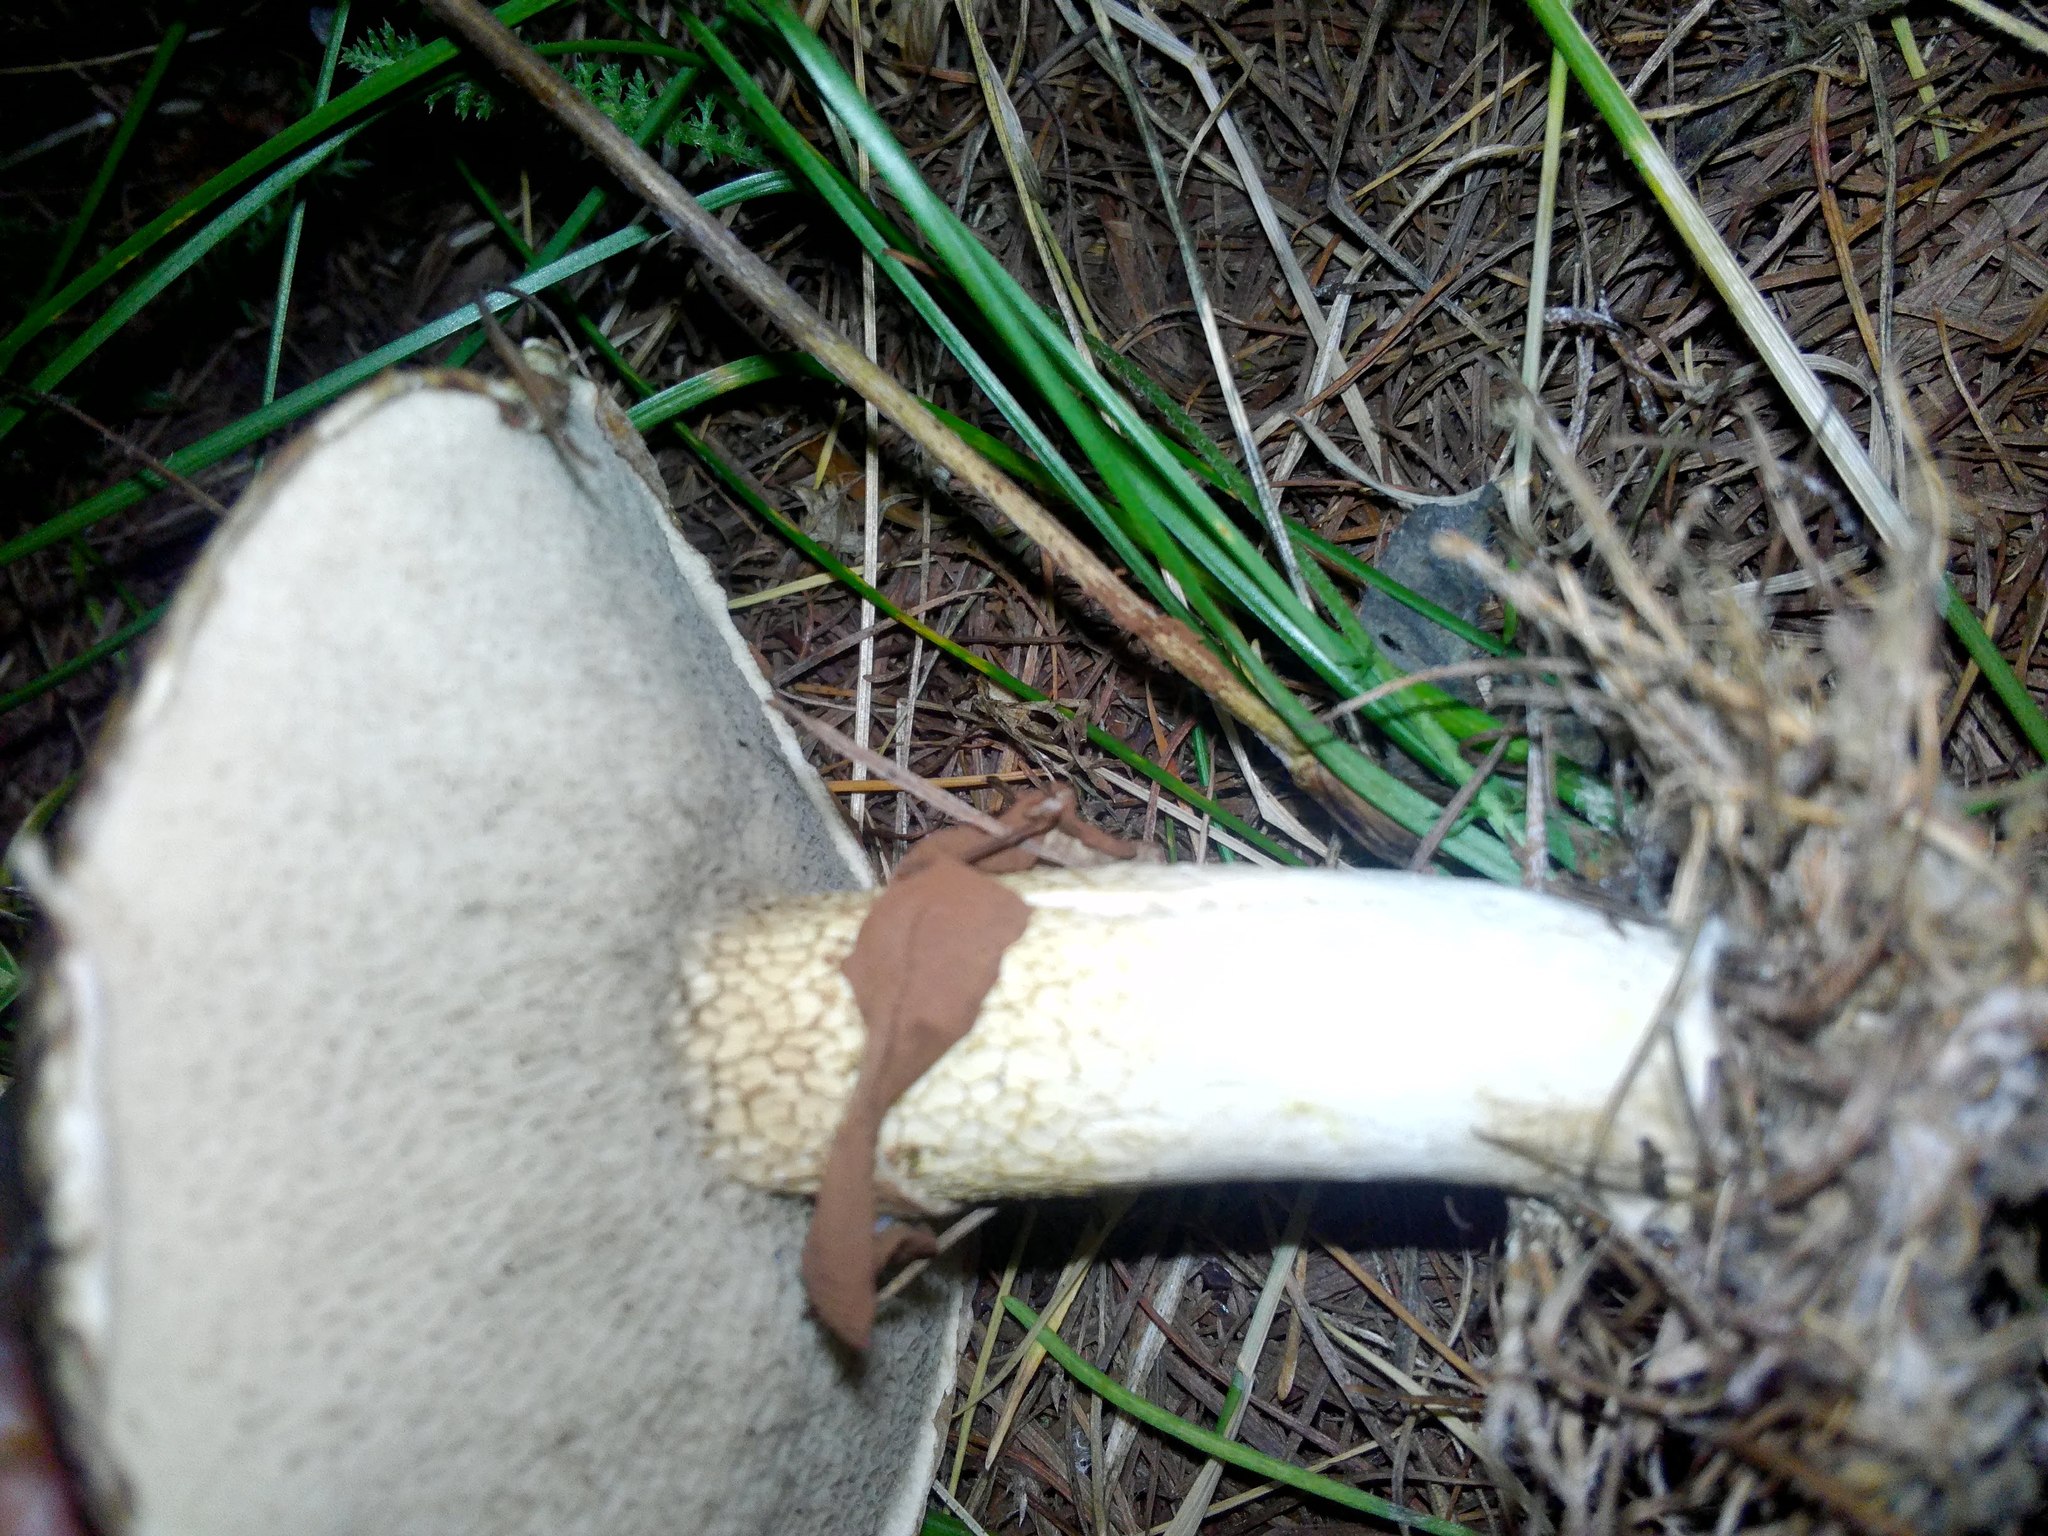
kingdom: Fungi
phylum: Basidiomycota
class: Agaricomycetes
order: Boletales
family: Suillaceae
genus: Suillus
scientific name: Suillus viscidus
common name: Sticky bolete
